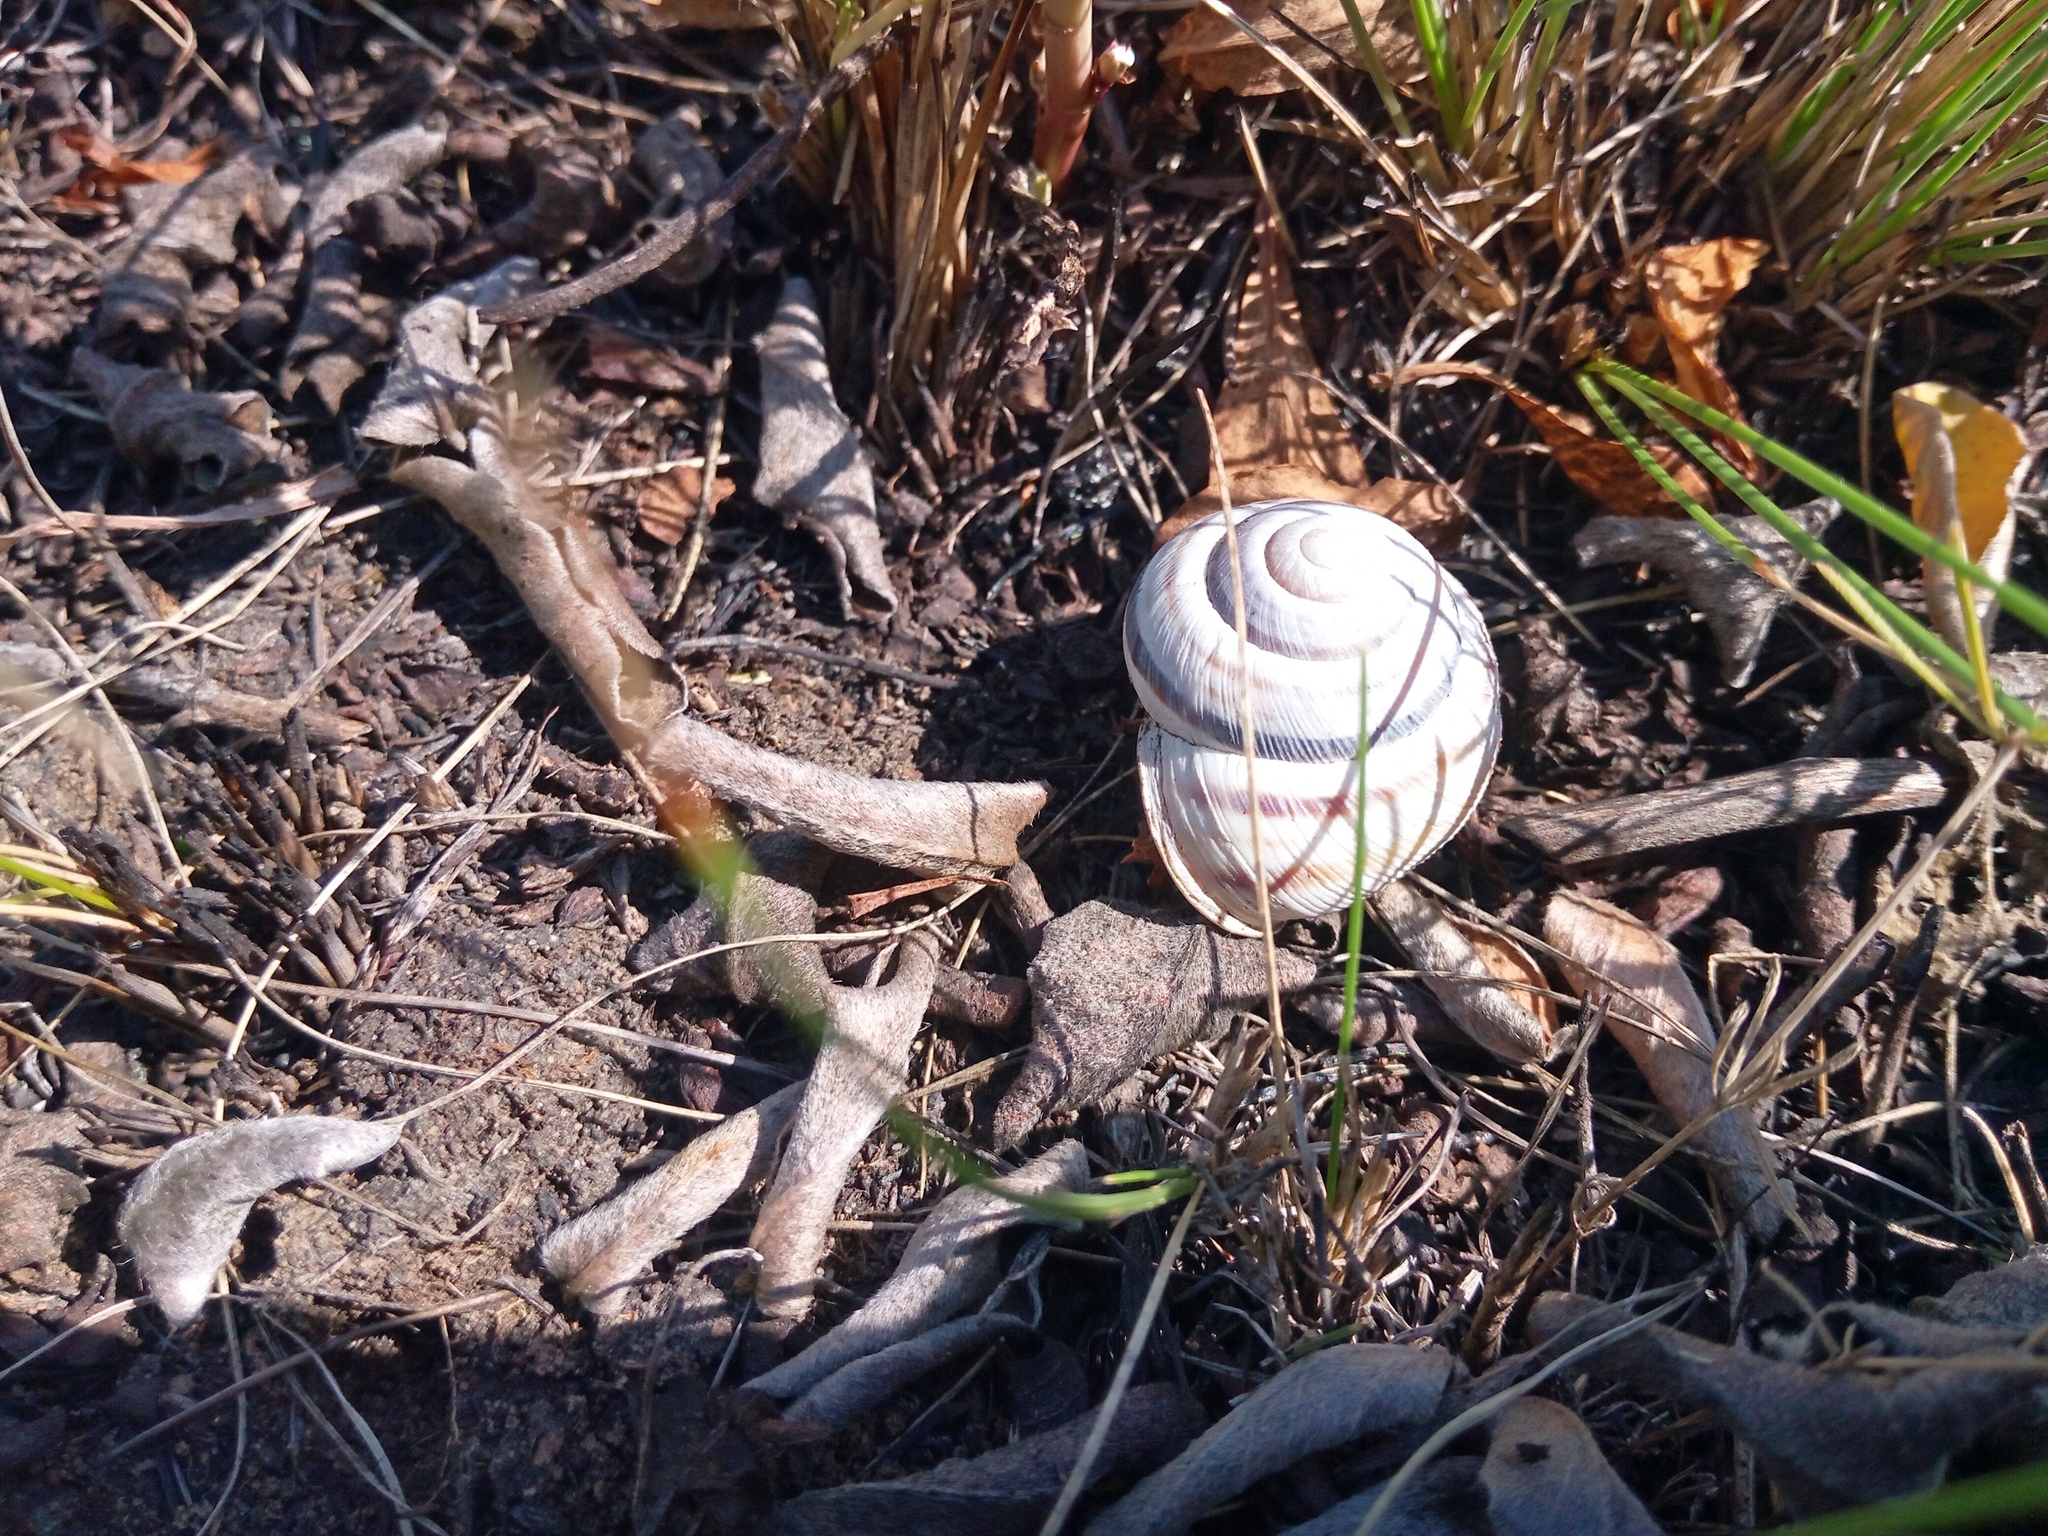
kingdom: Animalia
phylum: Mollusca
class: Gastropoda
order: Stylommatophora
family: Helicidae
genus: Caucasotachea
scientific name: Caucasotachea vindobonensis
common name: European helicid land snail
